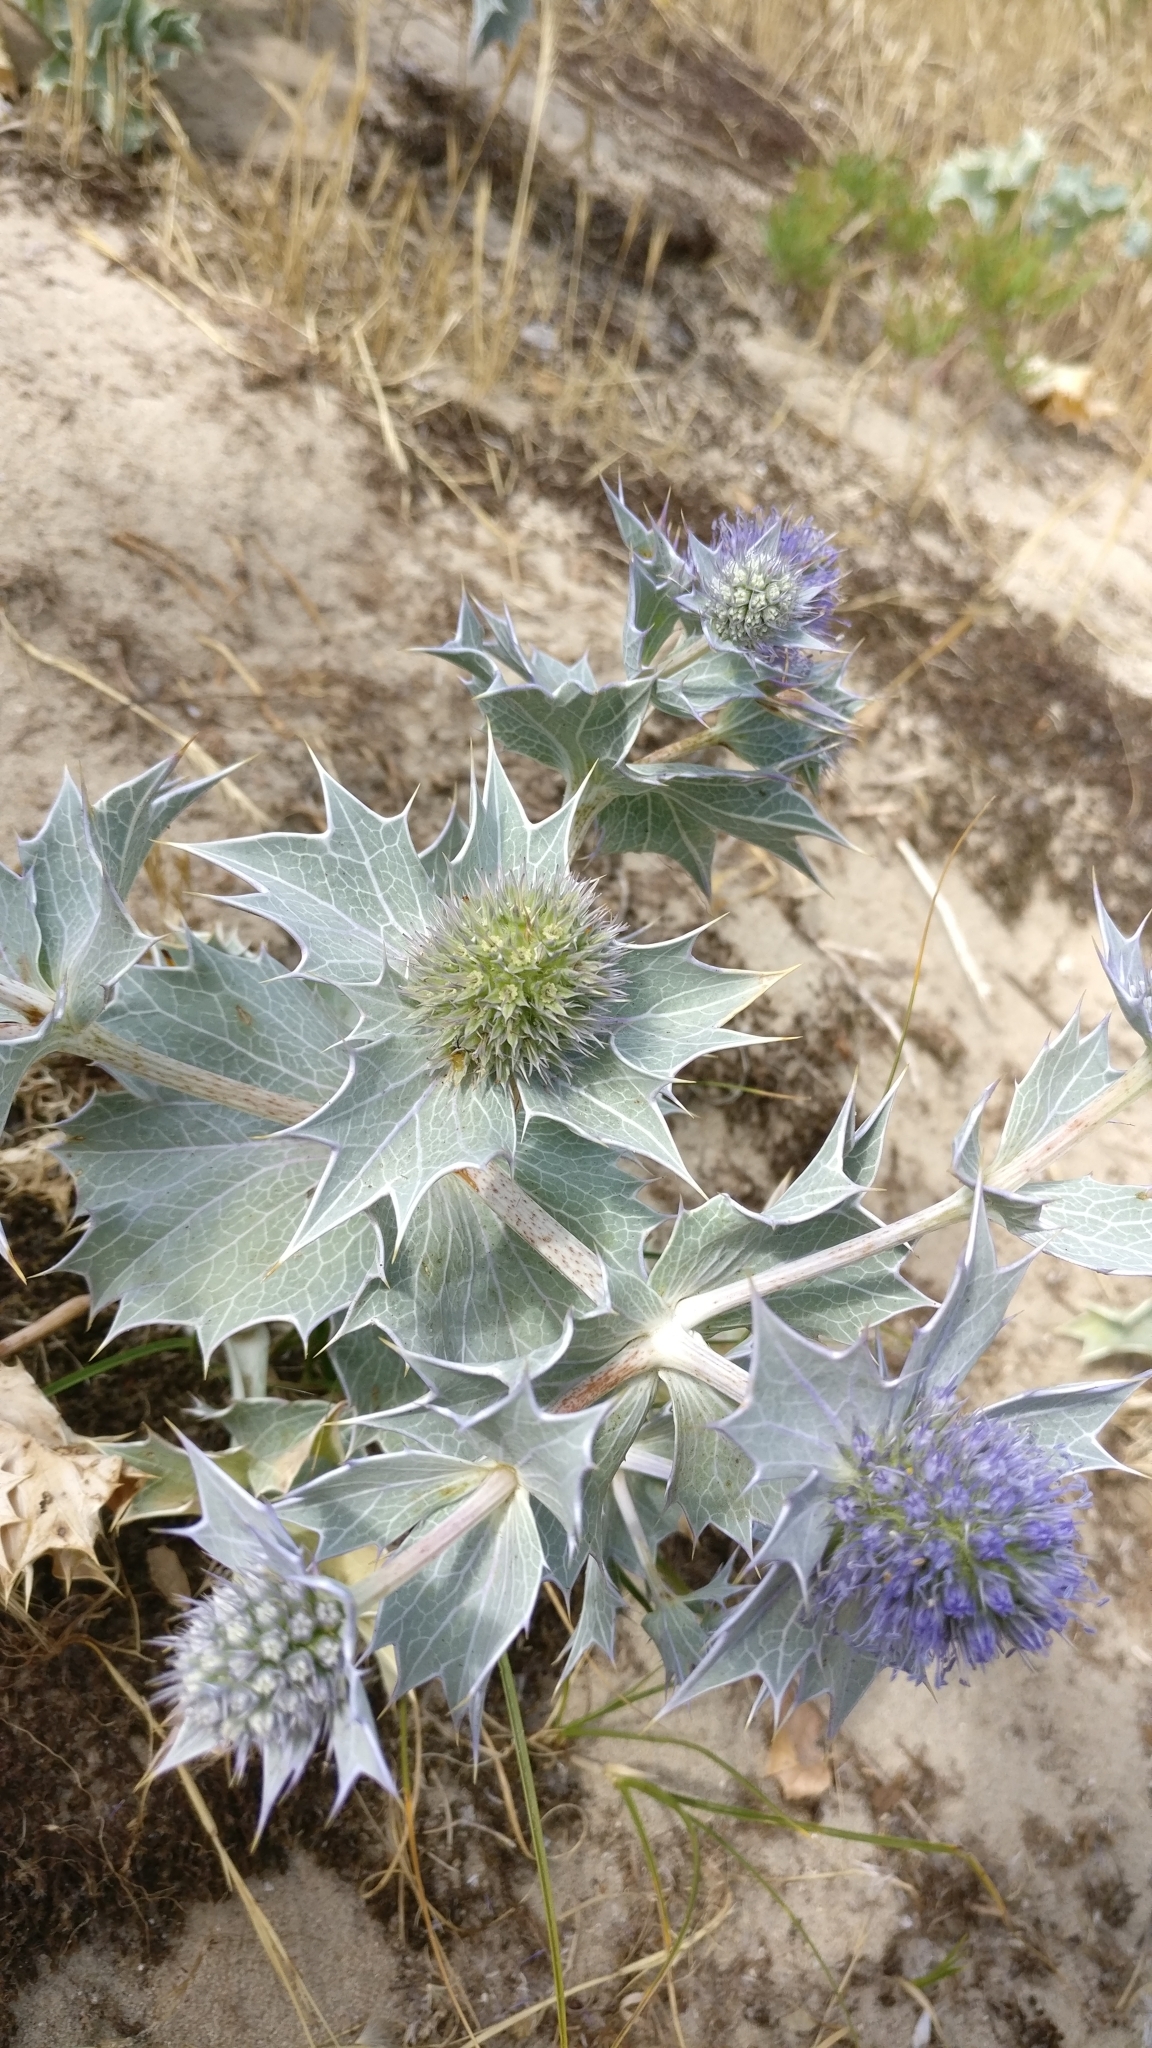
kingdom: Plantae
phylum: Tracheophyta
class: Magnoliopsida
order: Apiales
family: Apiaceae
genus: Eryngium
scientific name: Eryngium maritimum
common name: Sea-holly
